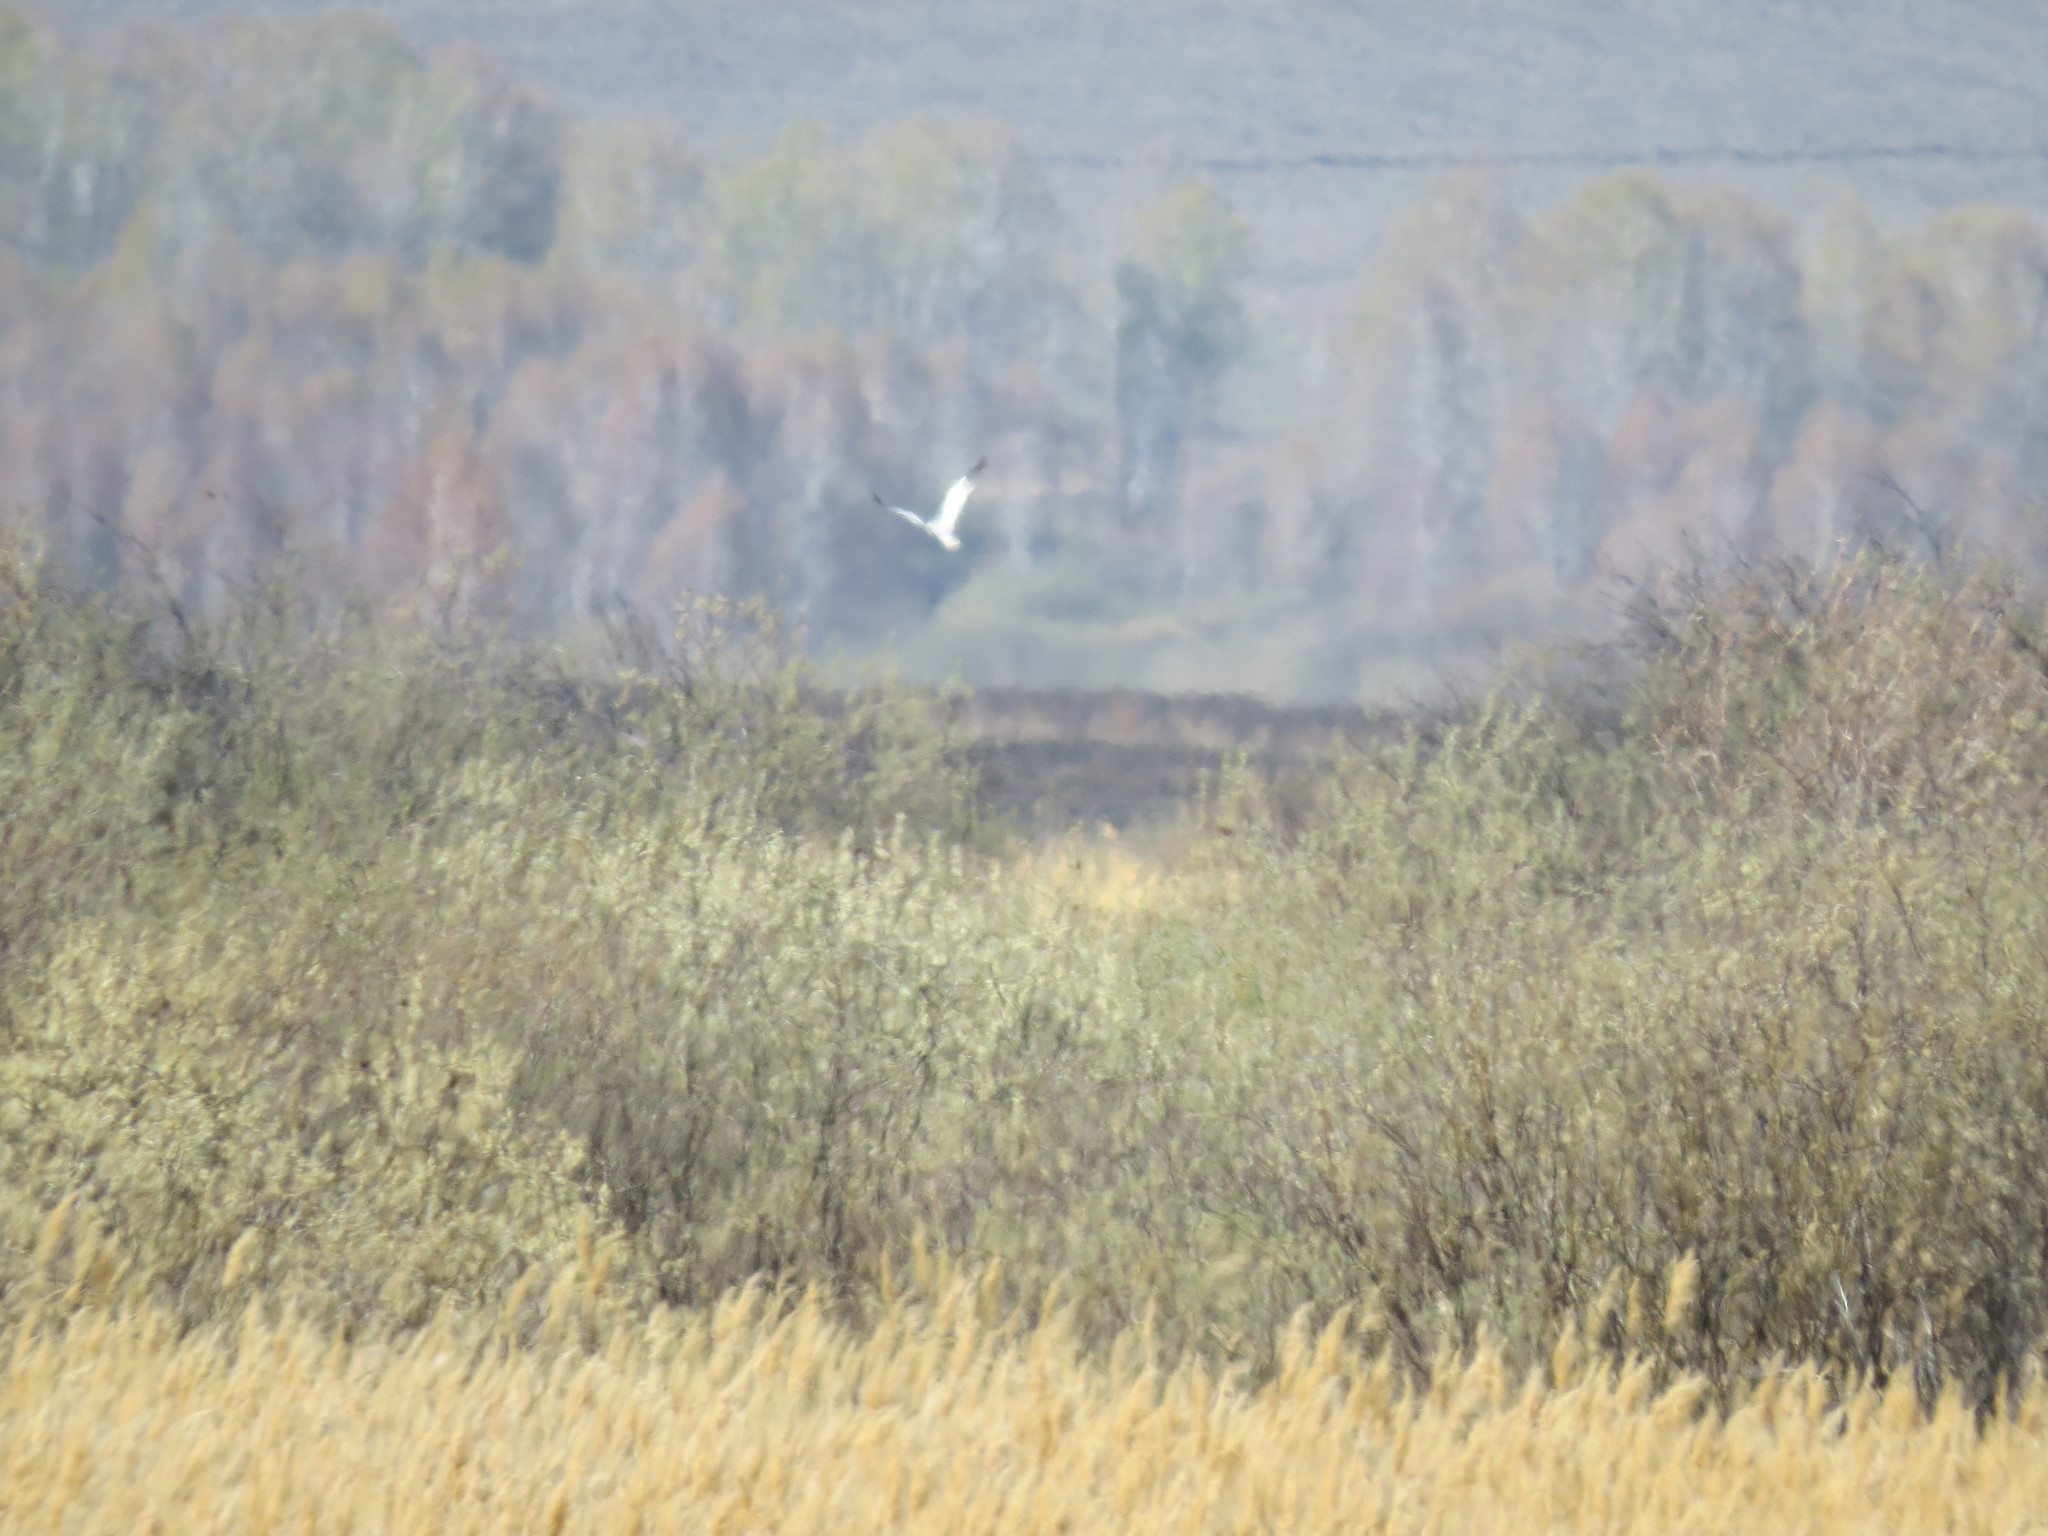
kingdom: Animalia
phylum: Chordata
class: Aves
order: Accipitriformes
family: Accipitridae
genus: Circus
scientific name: Circus macrourus
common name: Pallid harrier
